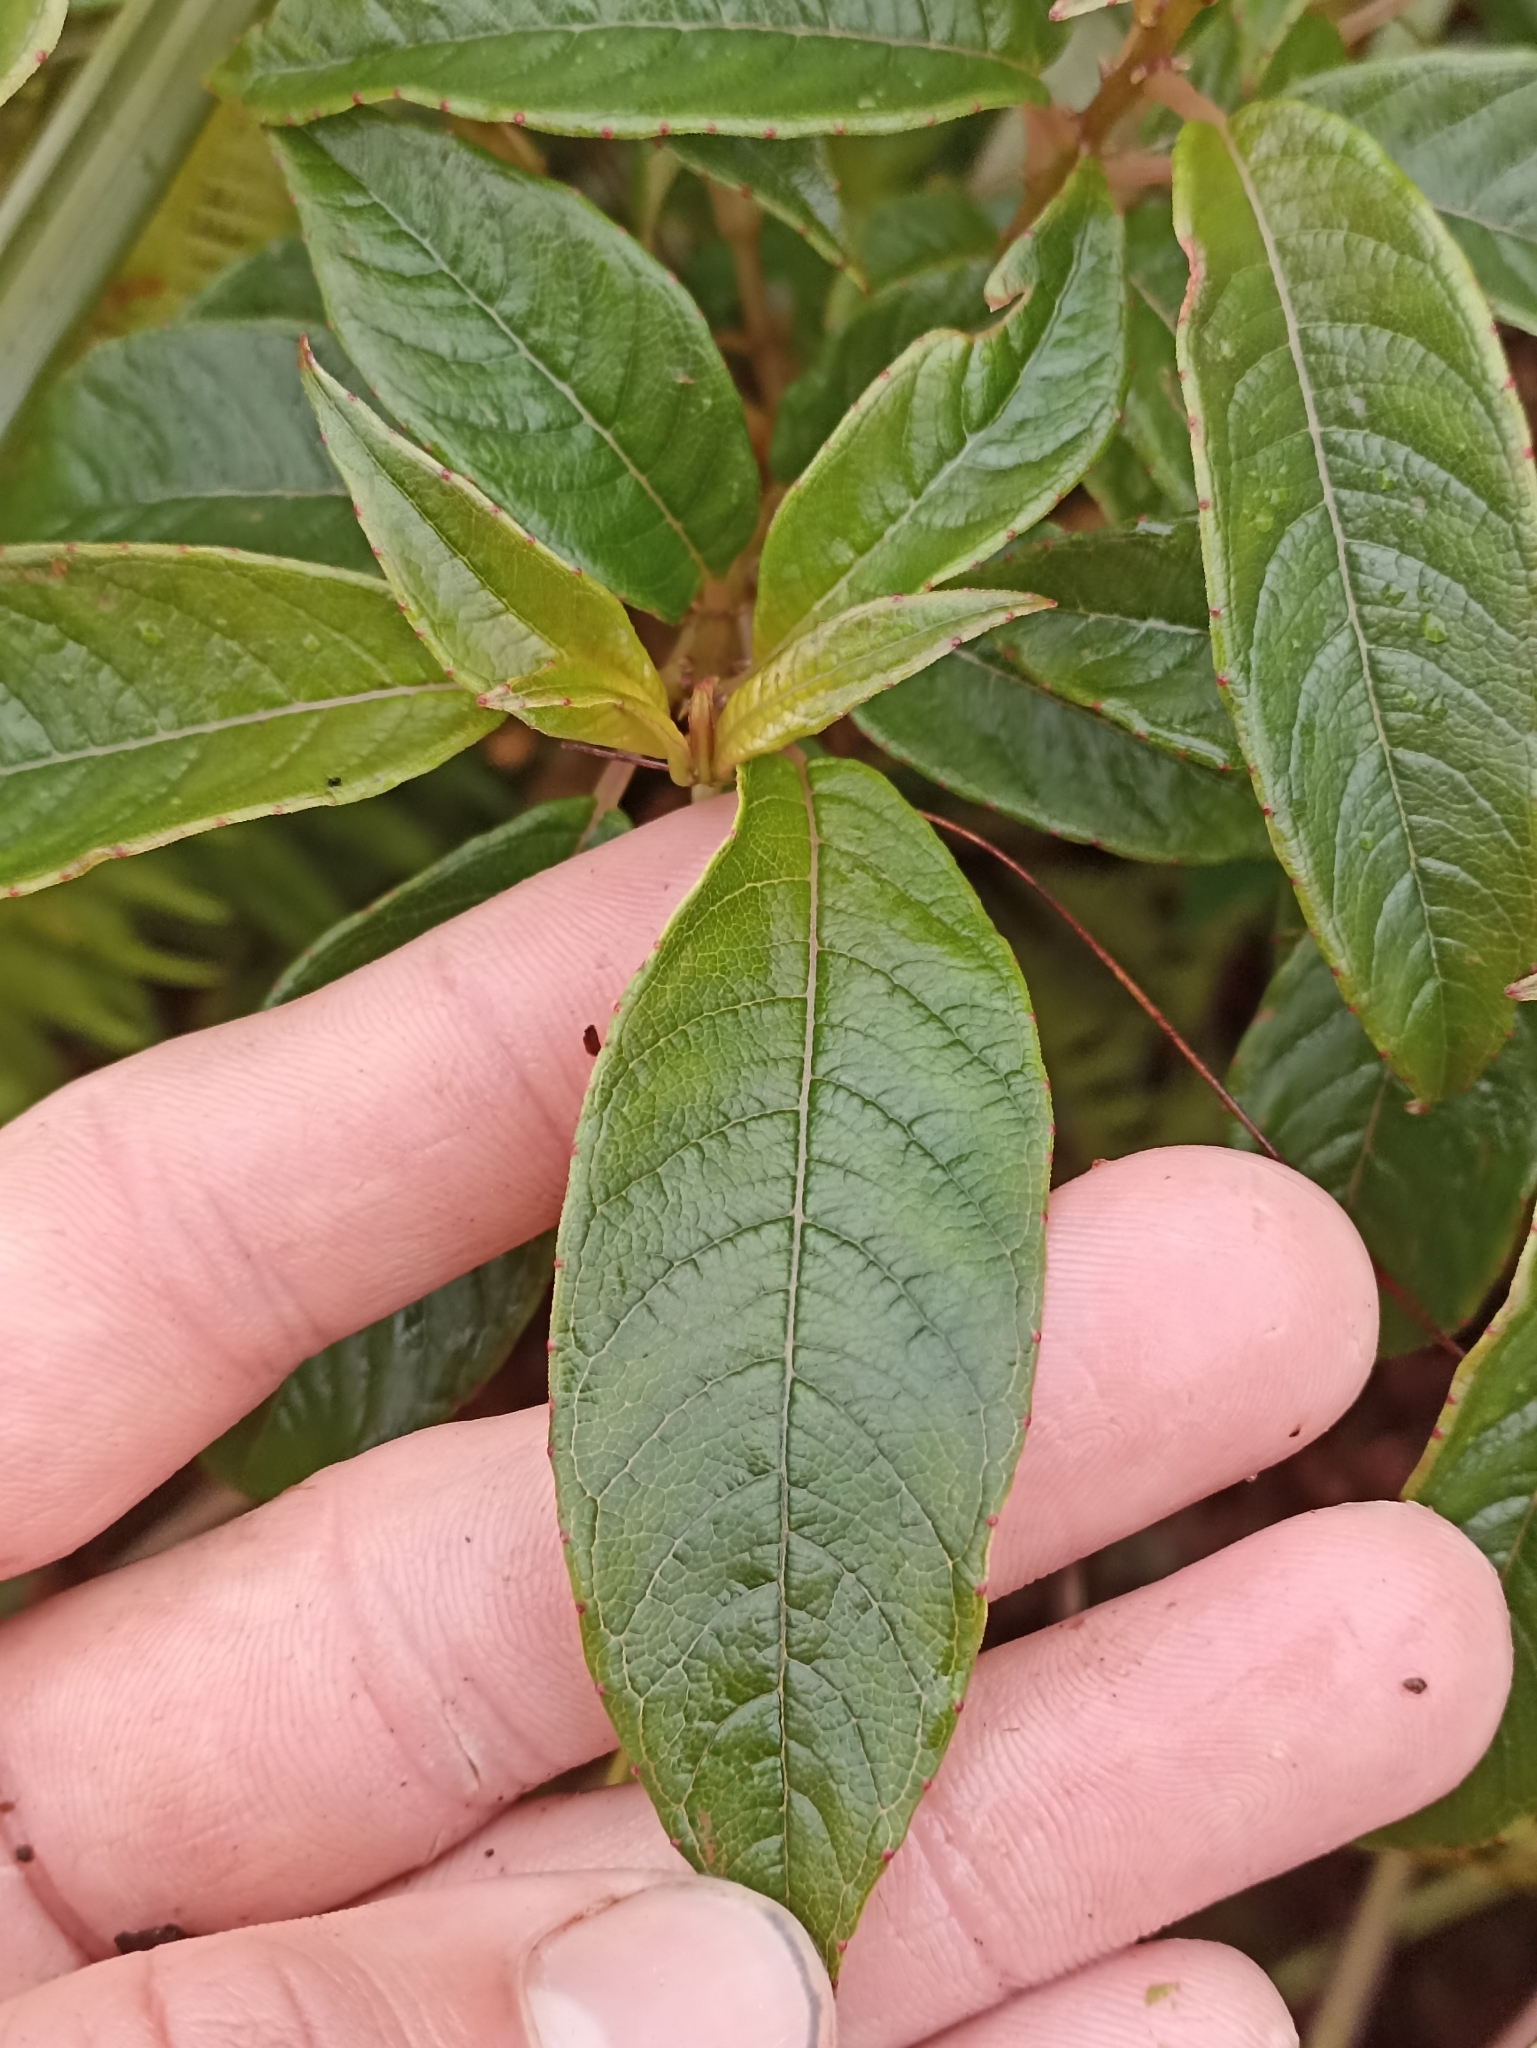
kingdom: Plantae
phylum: Tracheophyta
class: Magnoliopsida
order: Myrtales
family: Onagraceae
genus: Fuchsia
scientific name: Fuchsia excorticata
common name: Tree fuchsia
